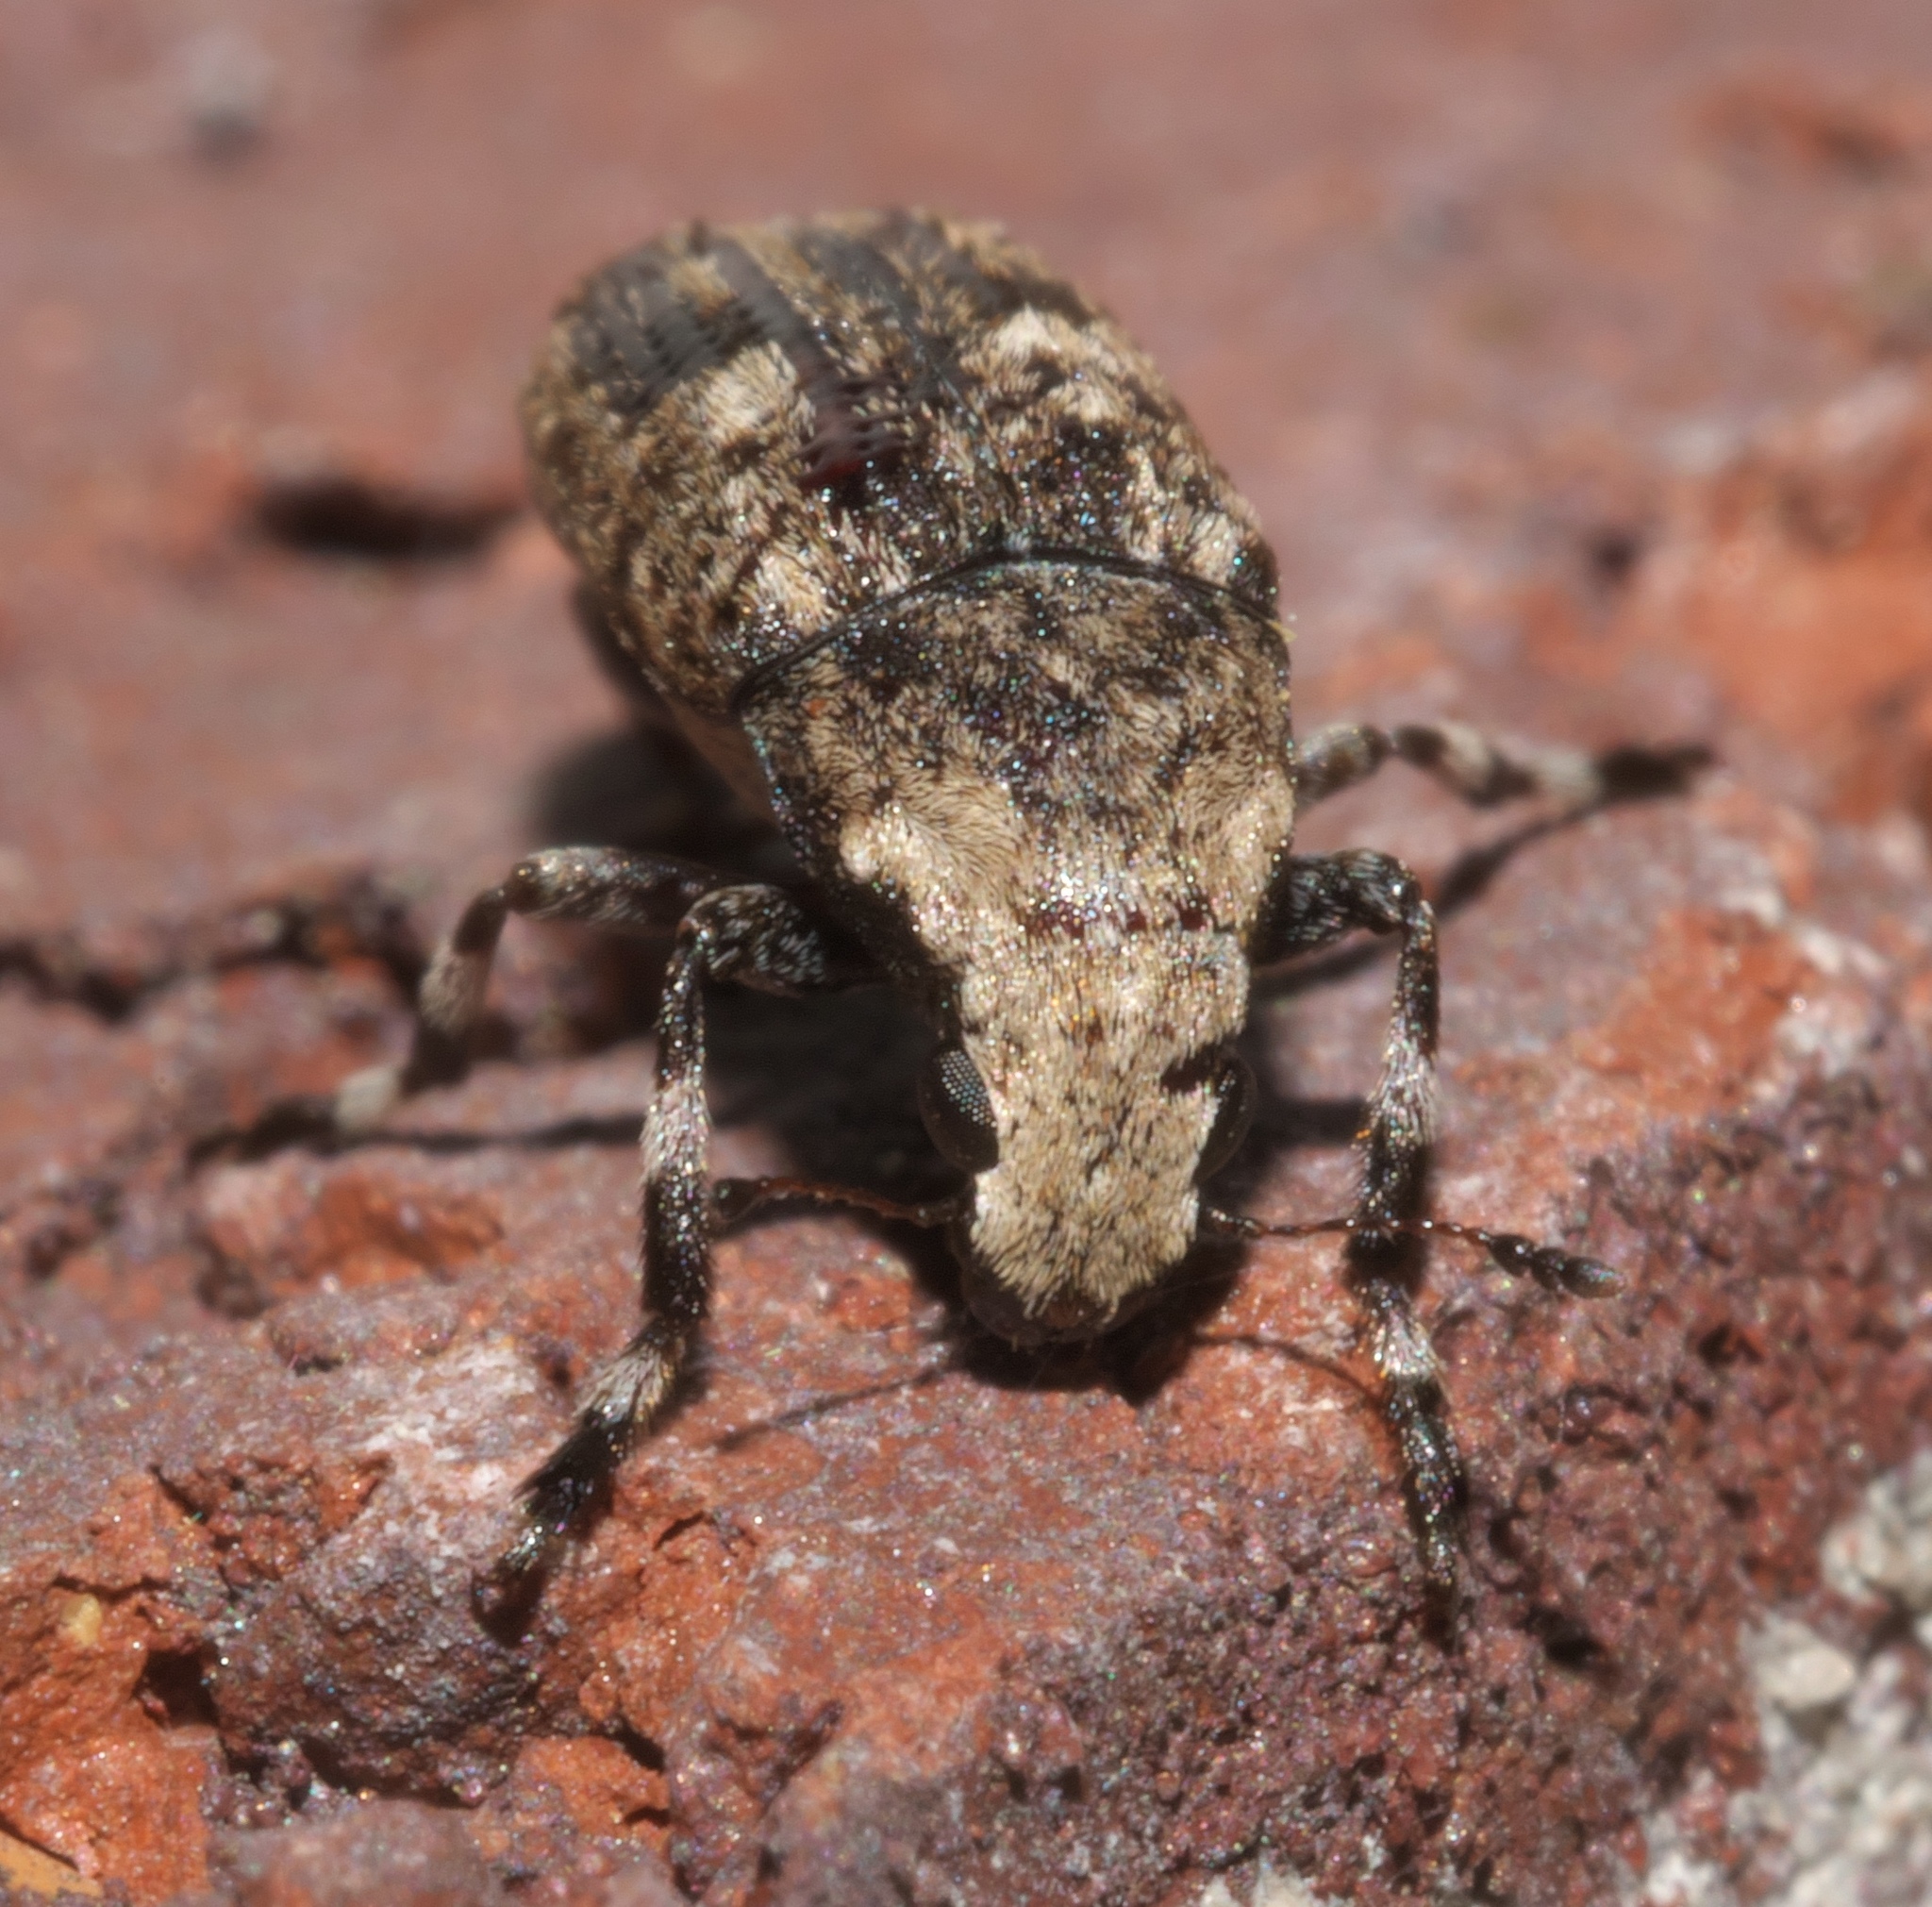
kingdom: Animalia
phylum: Arthropoda
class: Insecta
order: Coleoptera
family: Anthribidae
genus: Euparius
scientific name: Euparius marmoreus
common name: Marbled fungus weevil
